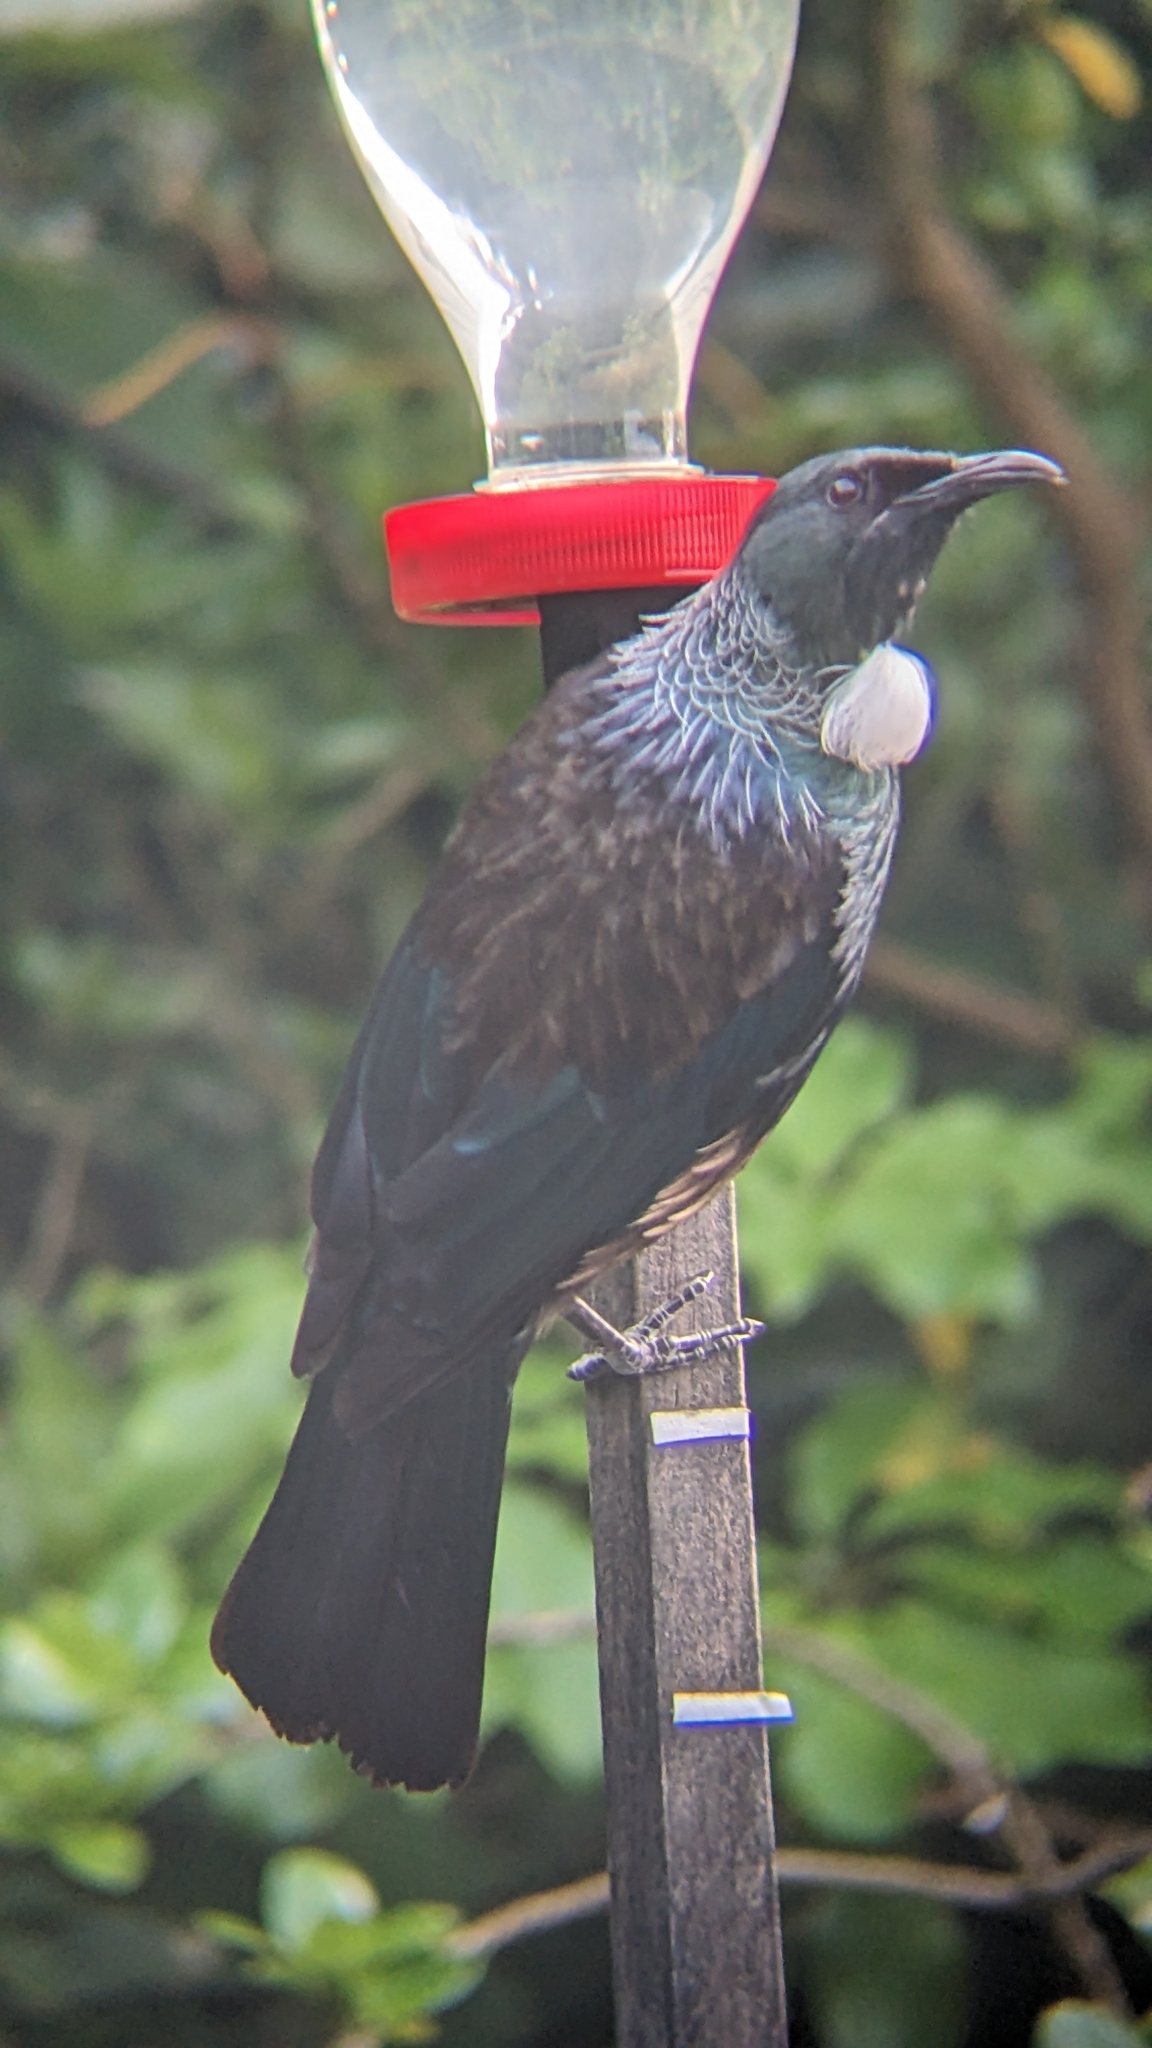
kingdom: Animalia
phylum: Chordata
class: Aves
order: Passeriformes
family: Meliphagidae
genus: Prosthemadera
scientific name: Prosthemadera novaeseelandiae
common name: Tui
